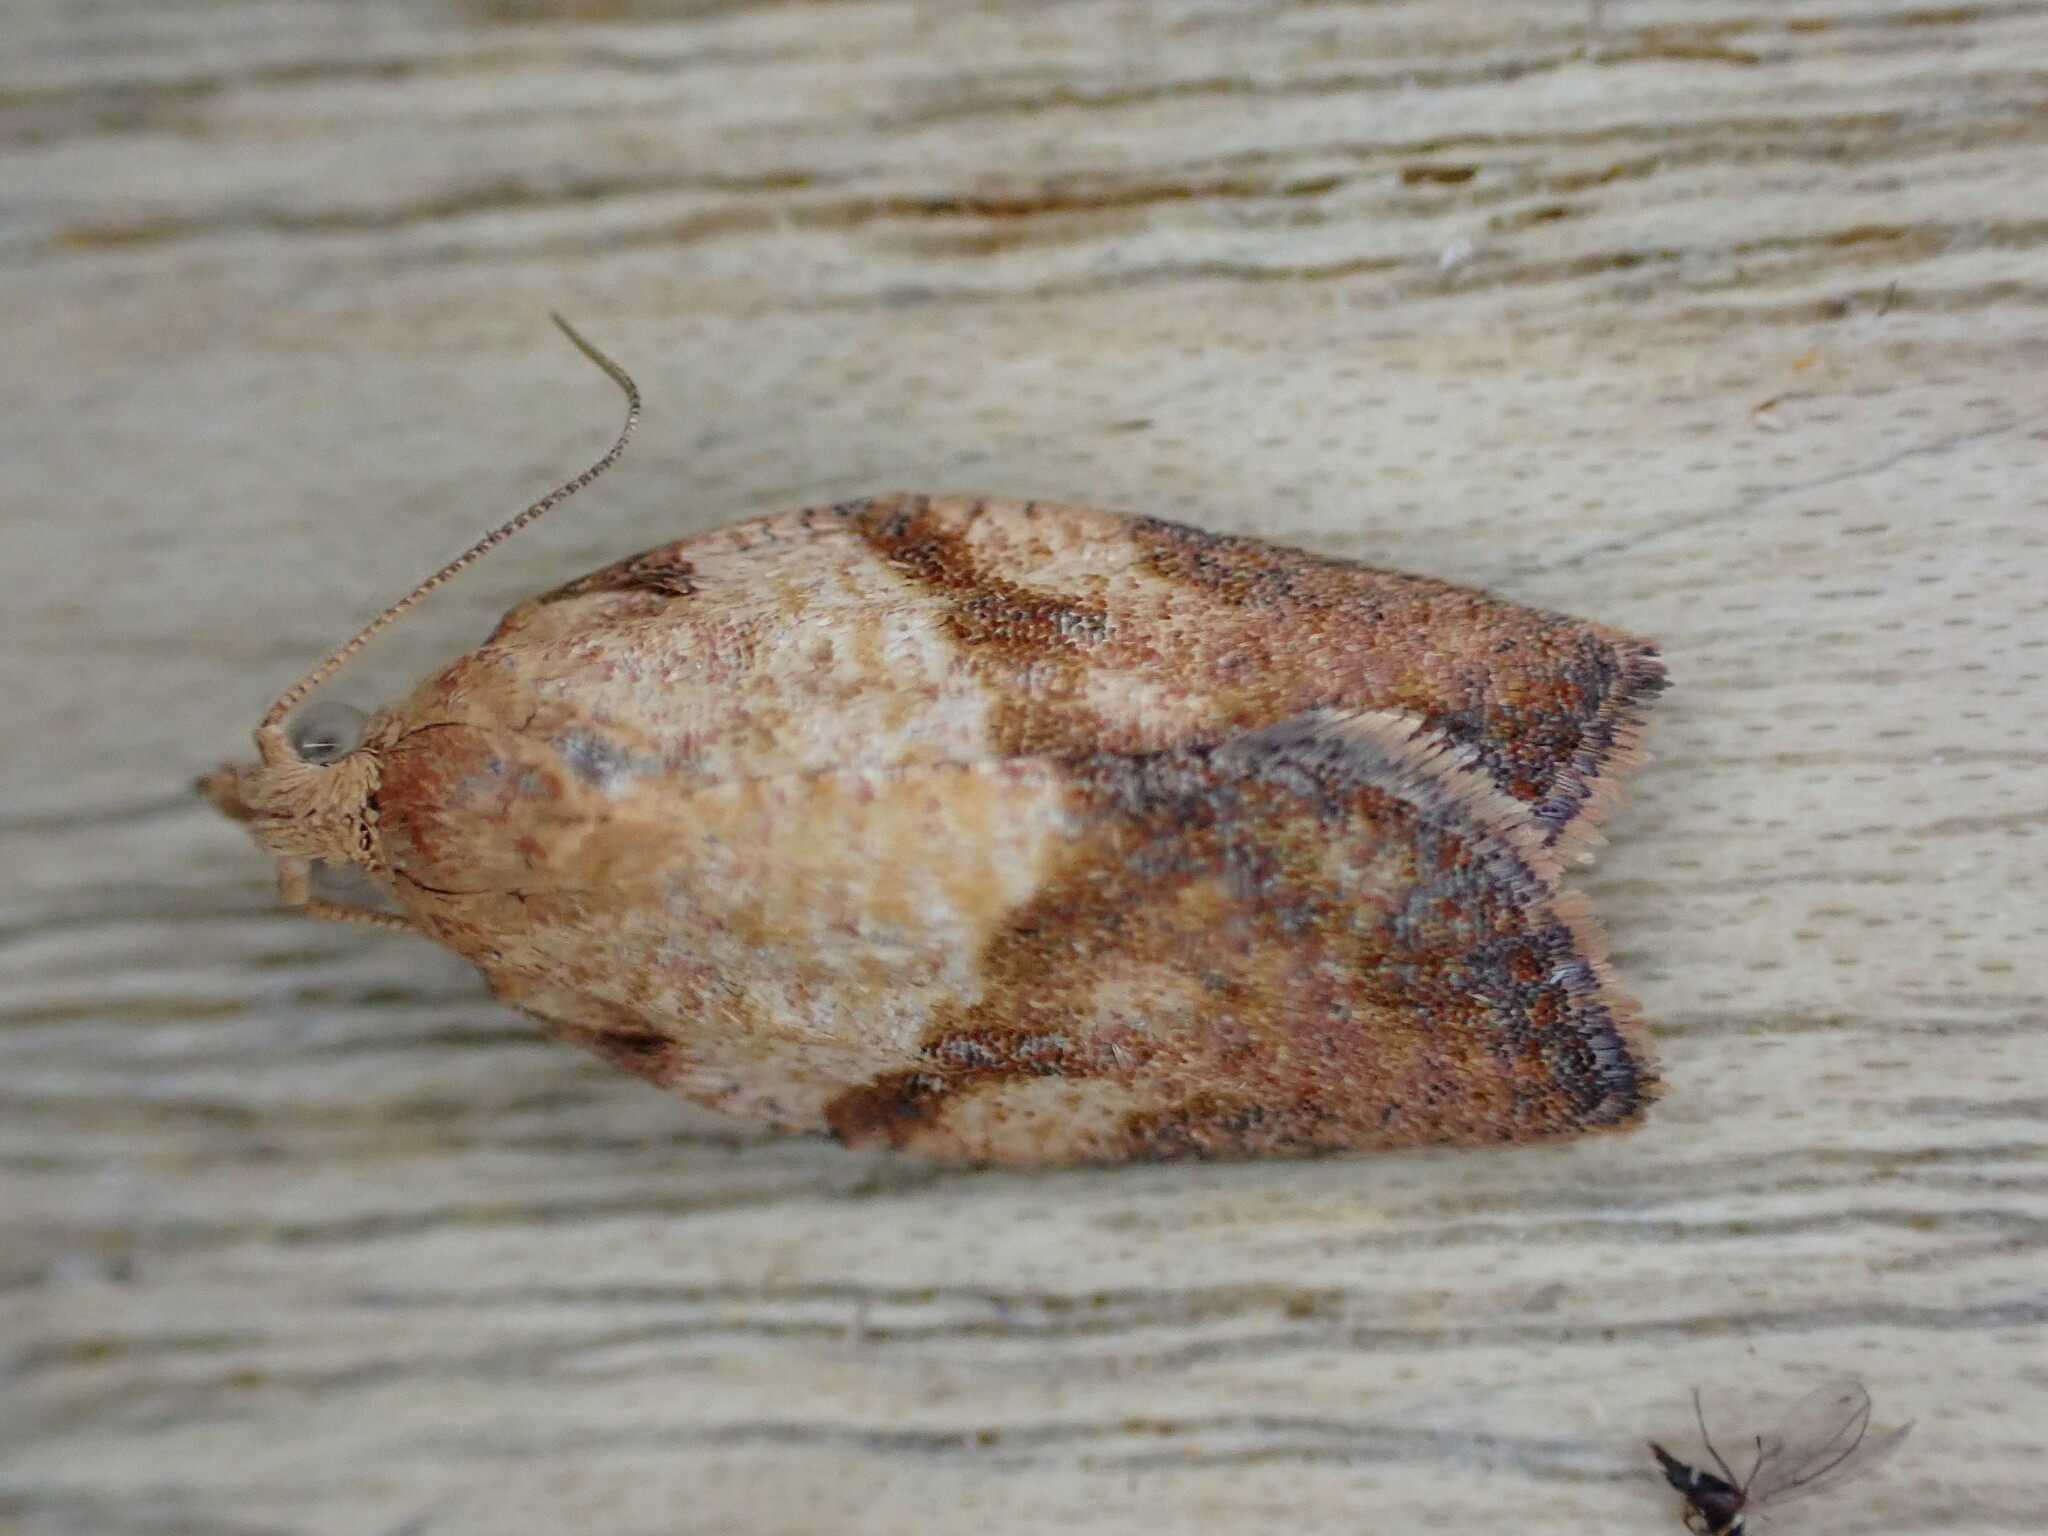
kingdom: Animalia
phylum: Arthropoda
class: Insecta
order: Lepidoptera
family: Tortricidae
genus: Epiphyas
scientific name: Epiphyas postvittana
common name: Light brown apple moth
